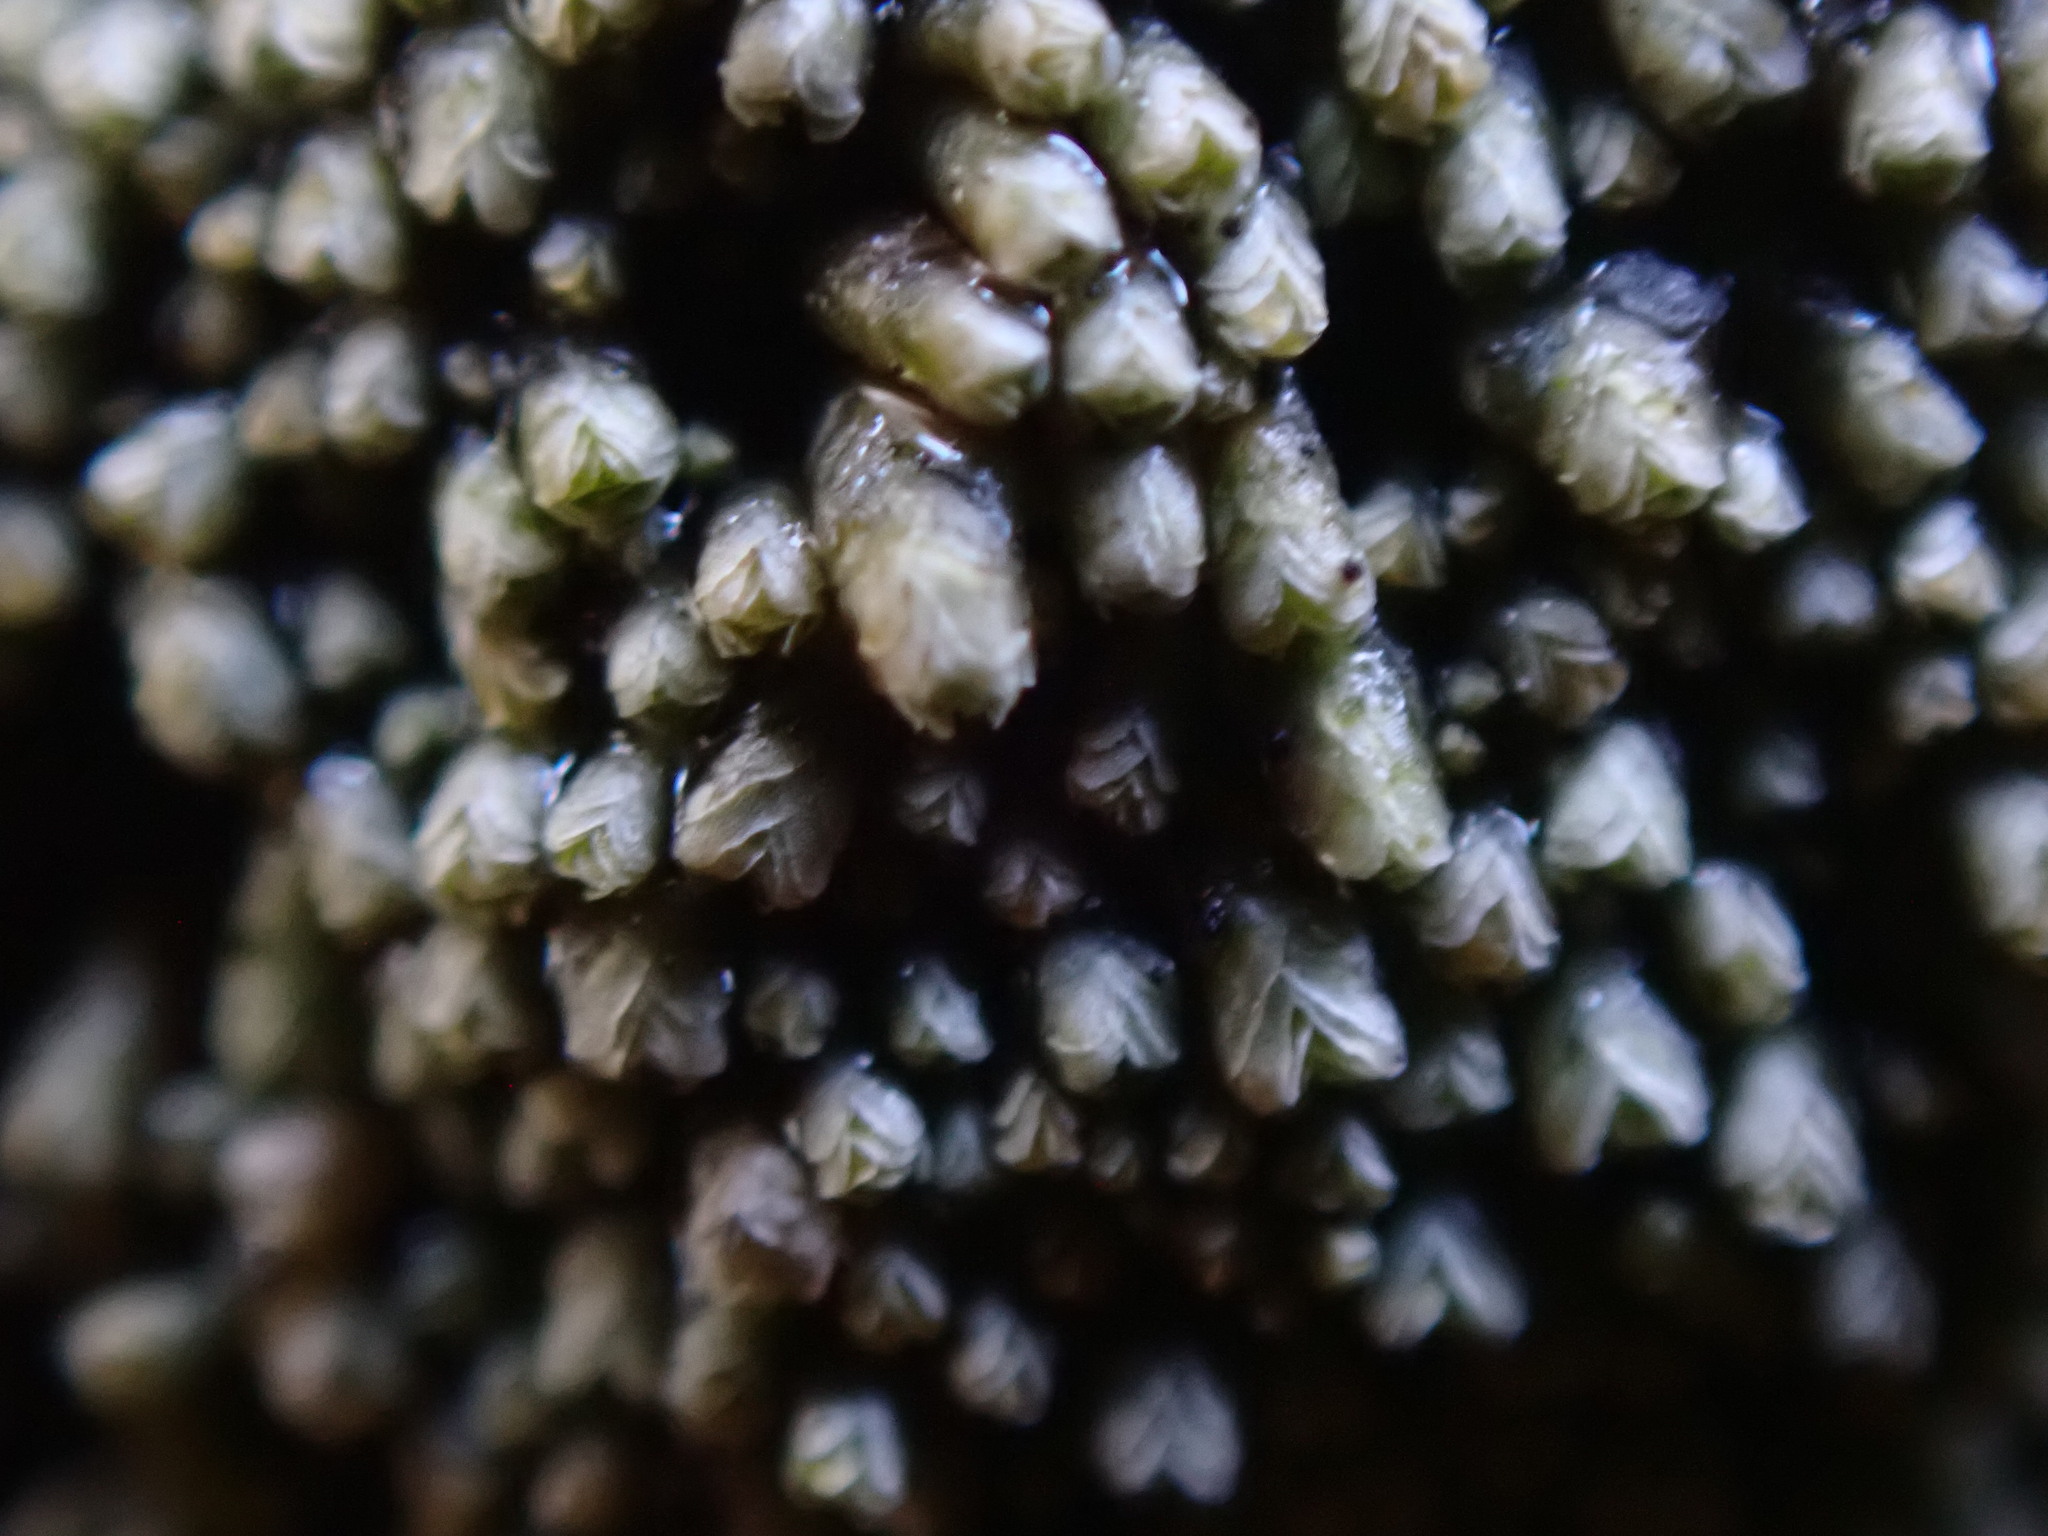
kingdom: Plantae
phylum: Marchantiophyta
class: Jungermanniopsida
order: Jungermanniales
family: Gymnomitriaceae
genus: Gymnomitrion
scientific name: Gymnomitrion obtusum
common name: White frostwort
